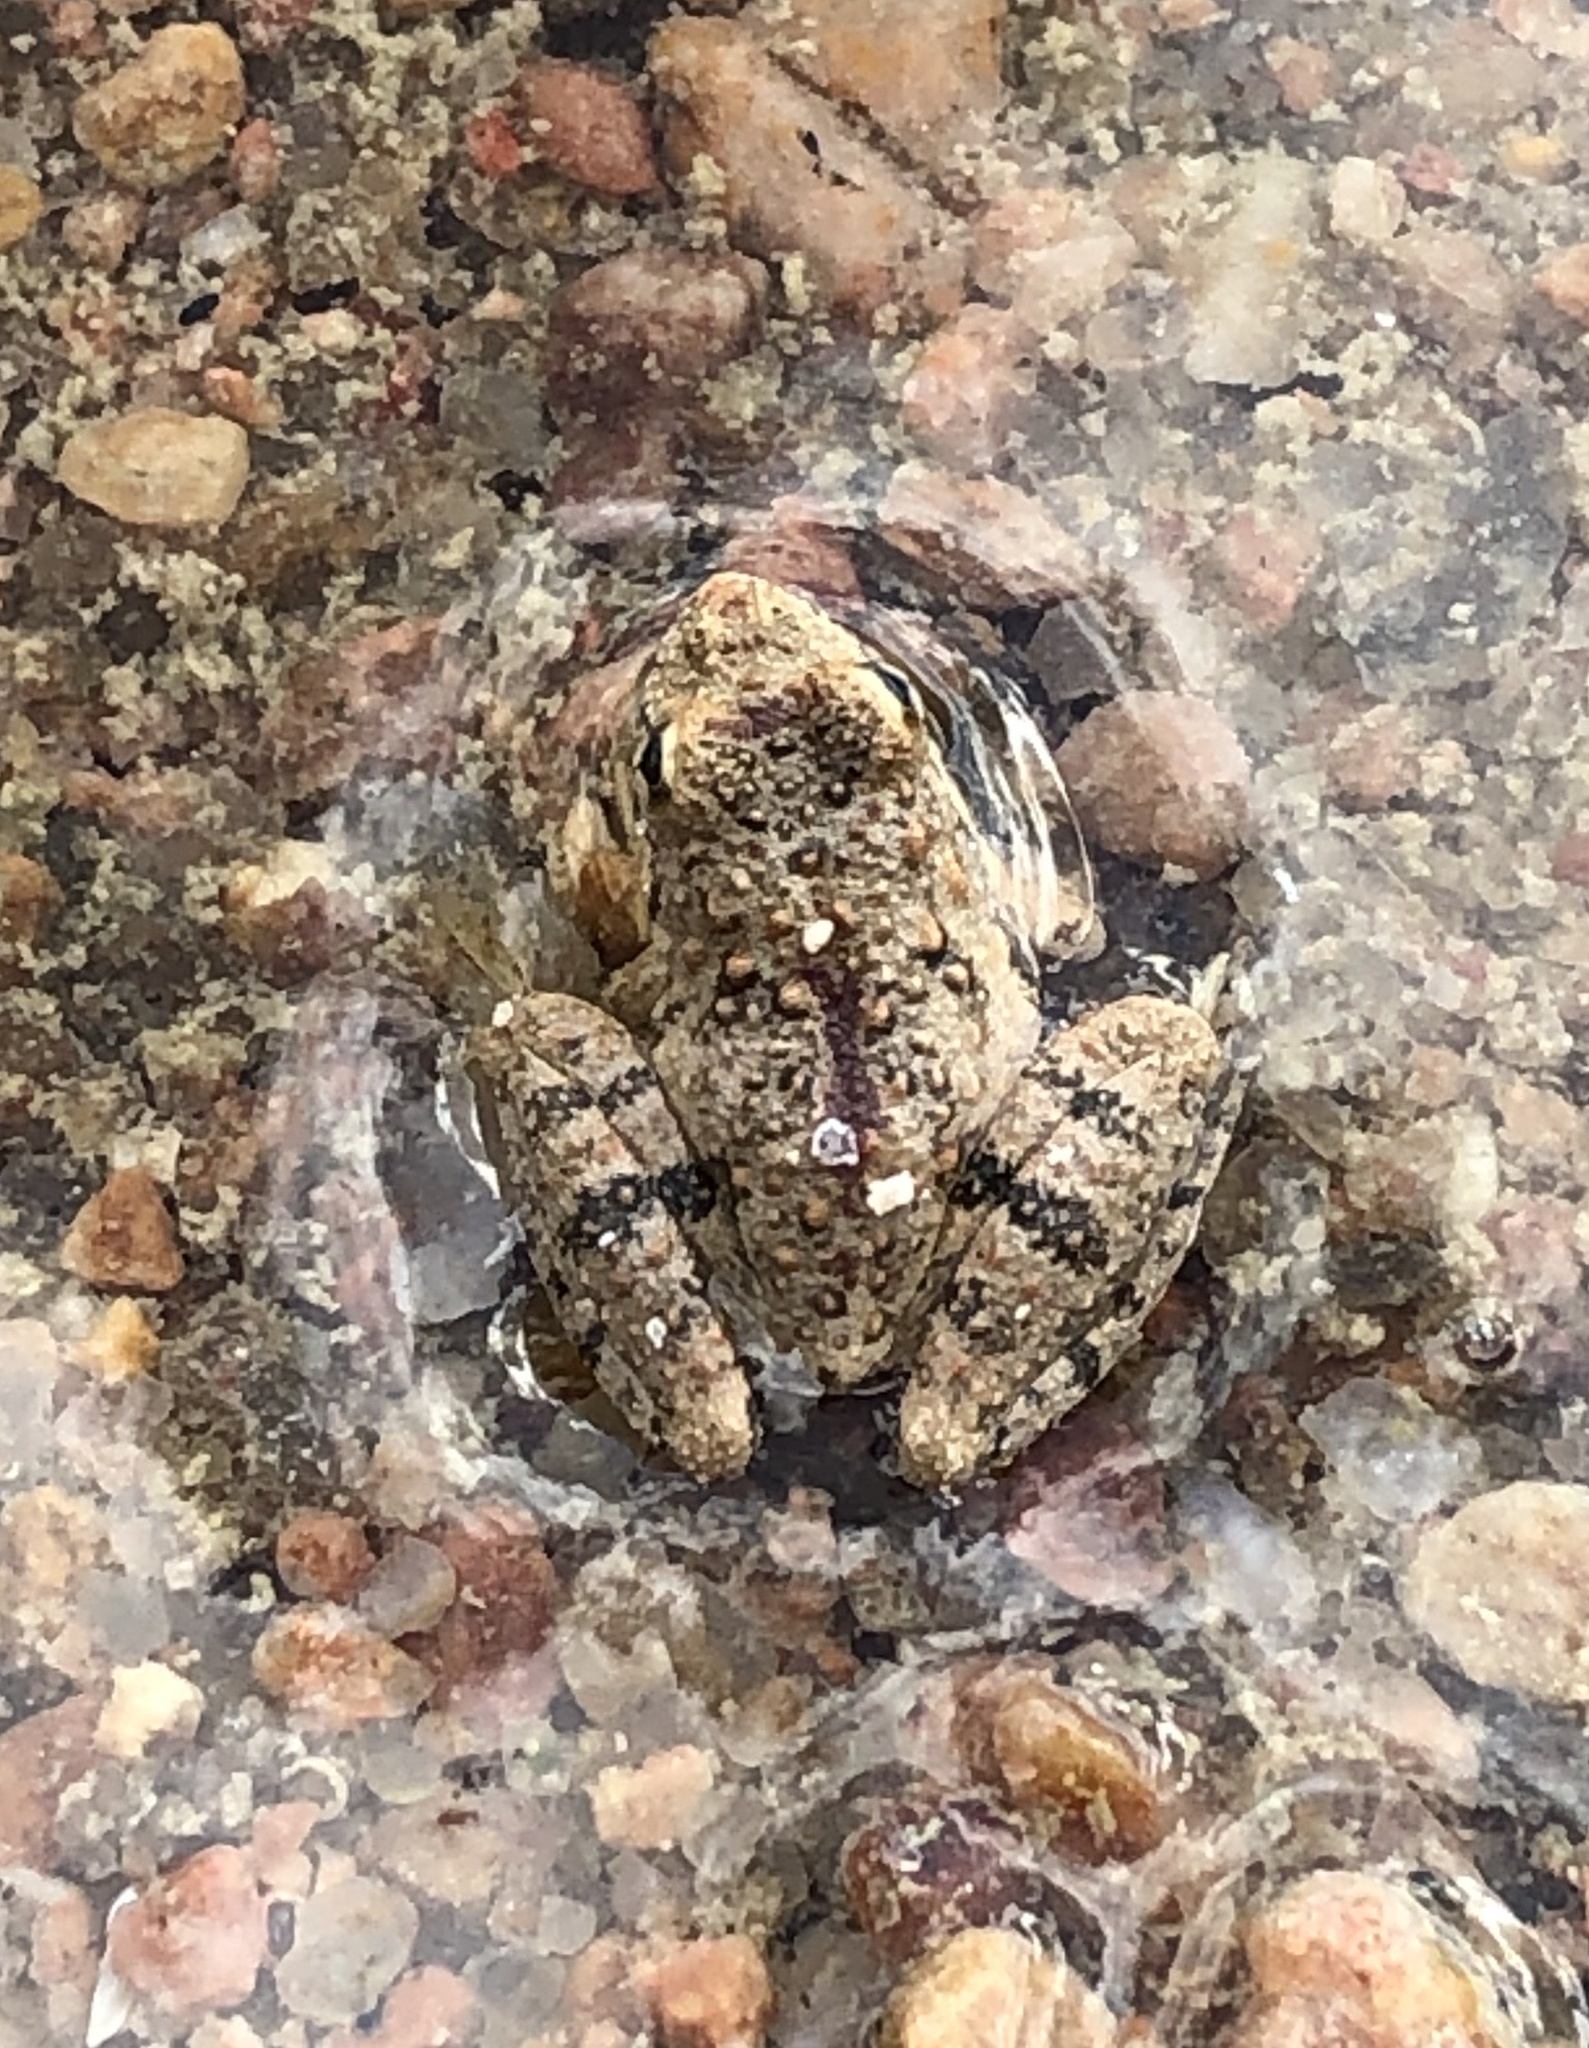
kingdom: Animalia
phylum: Chordata
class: Amphibia
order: Anura
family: Hylidae
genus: Acris
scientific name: Acris blanchardi
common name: Blanchard's cricket frog
